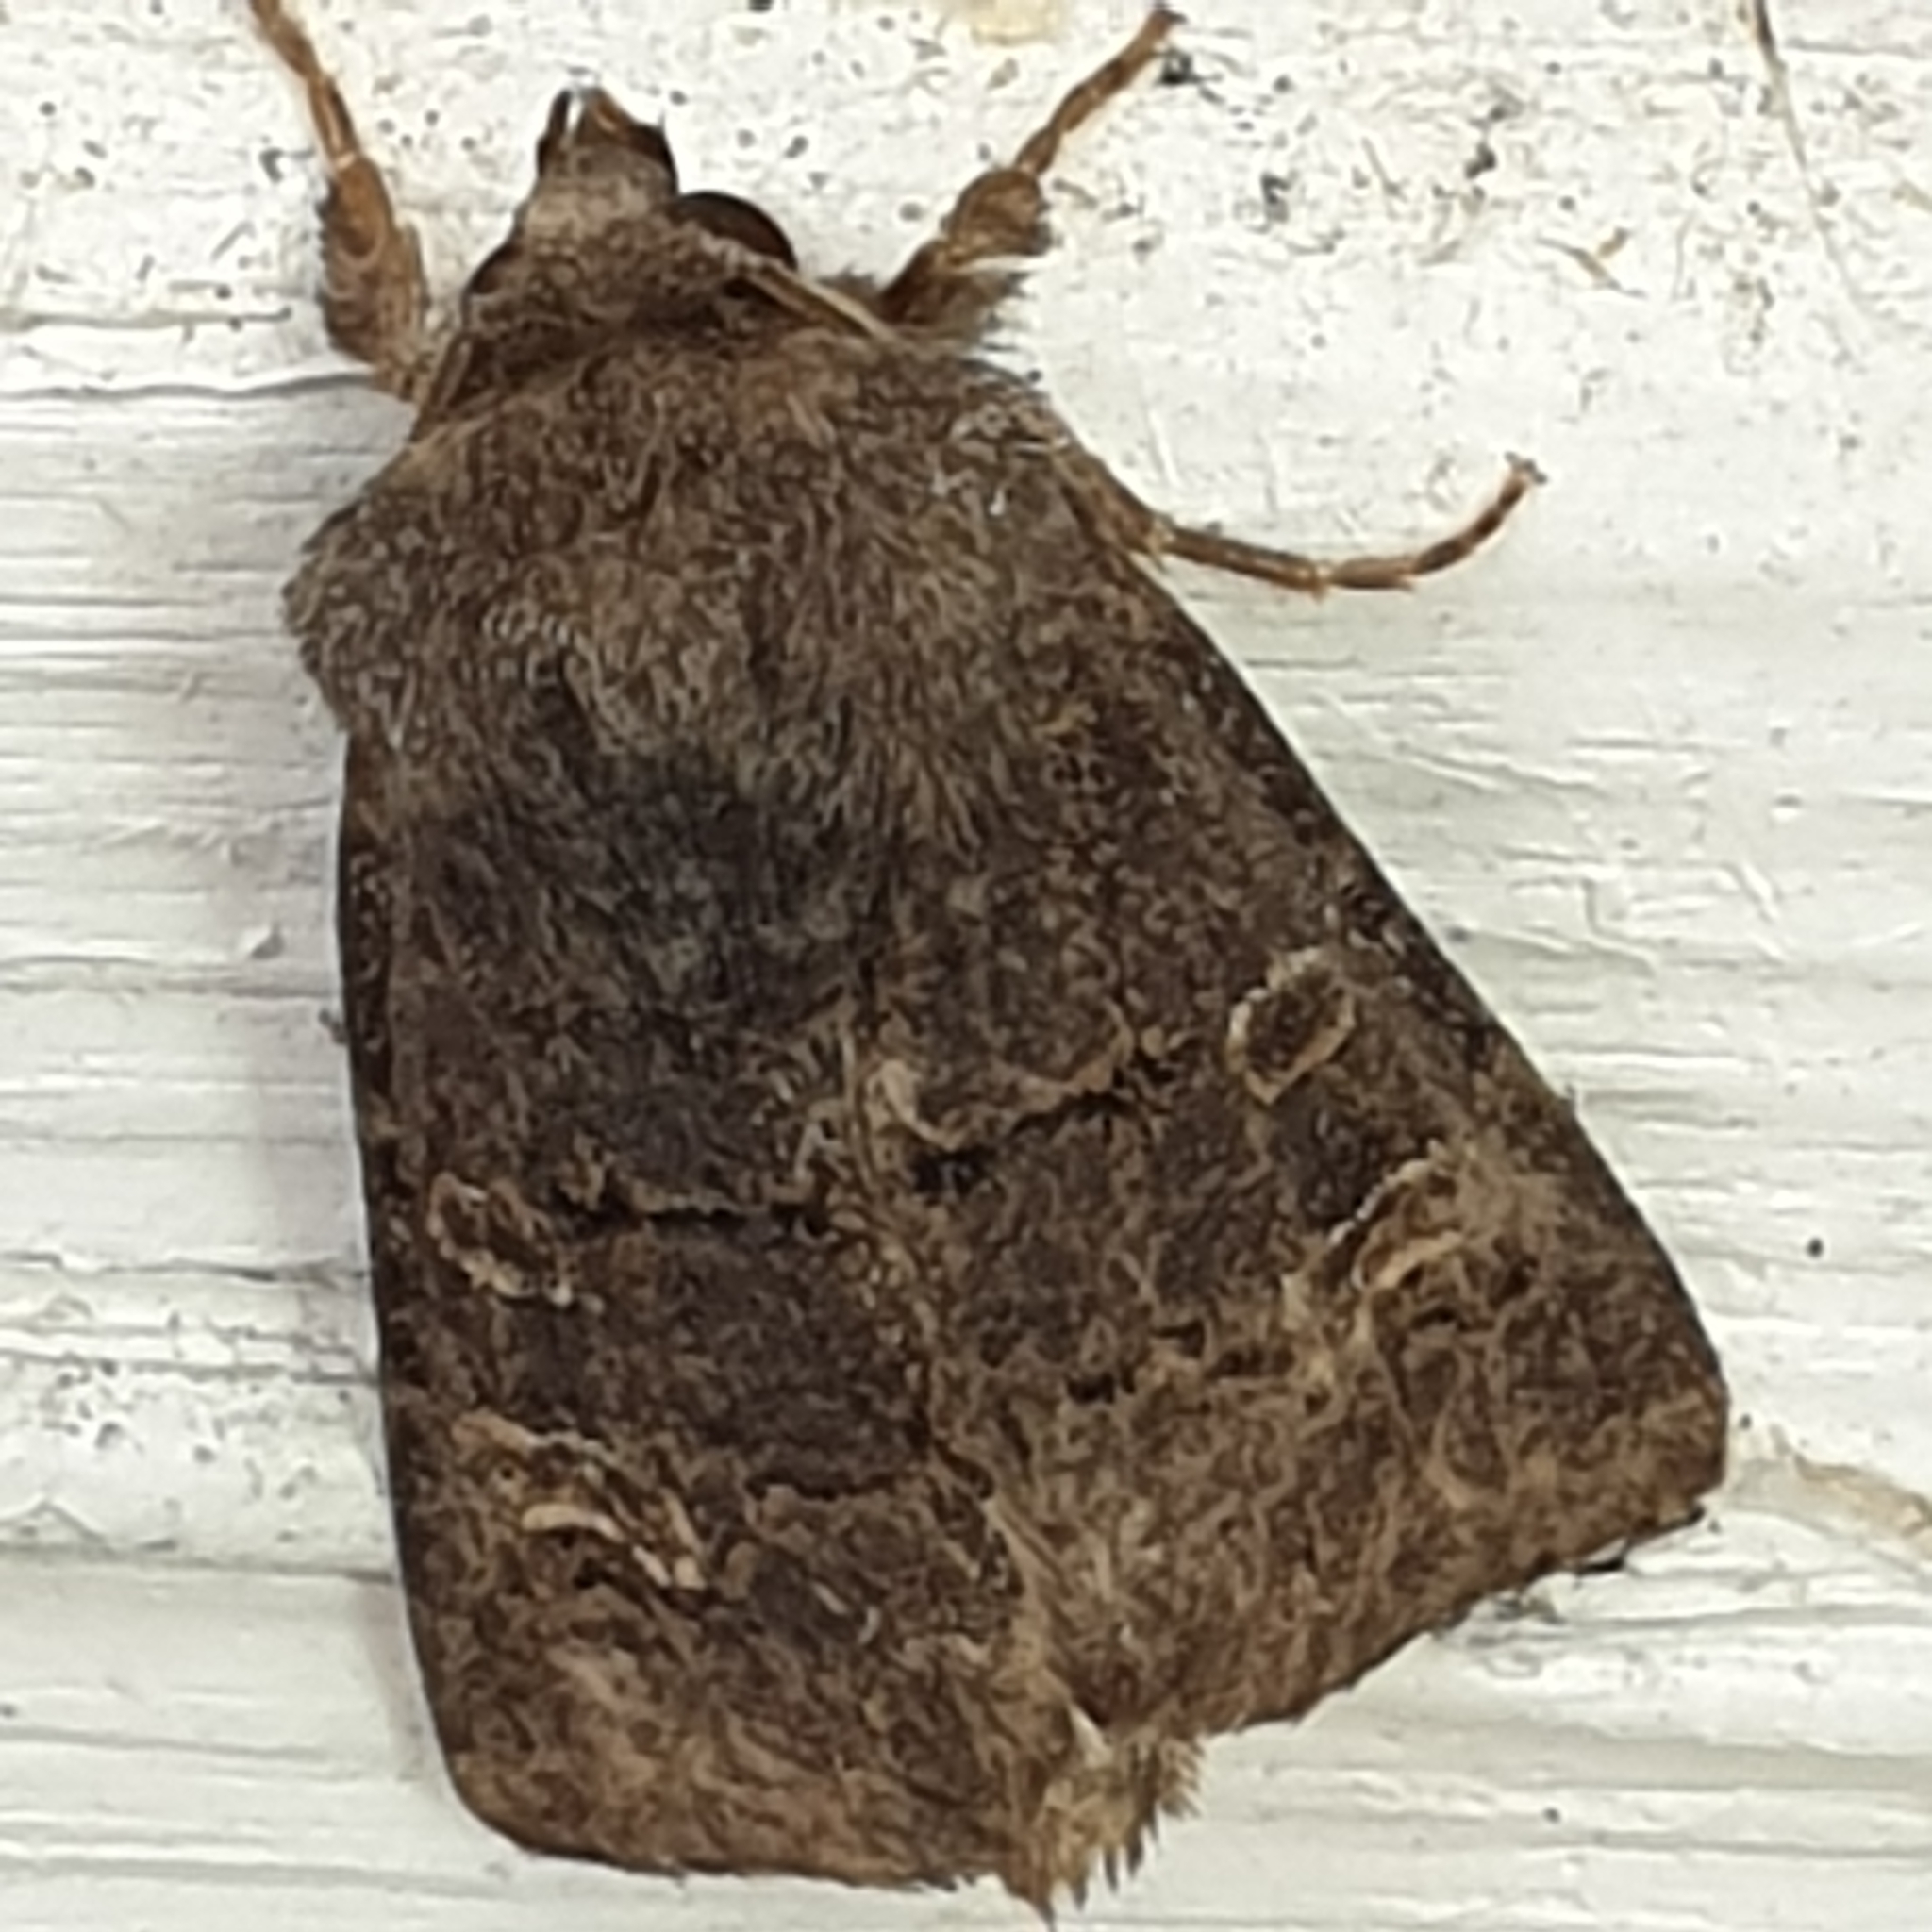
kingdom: Animalia
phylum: Arthropoda
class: Insecta
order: Lepidoptera
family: Noctuidae
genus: Tholera
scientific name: Tholera cespitis
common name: Hedge rustic
